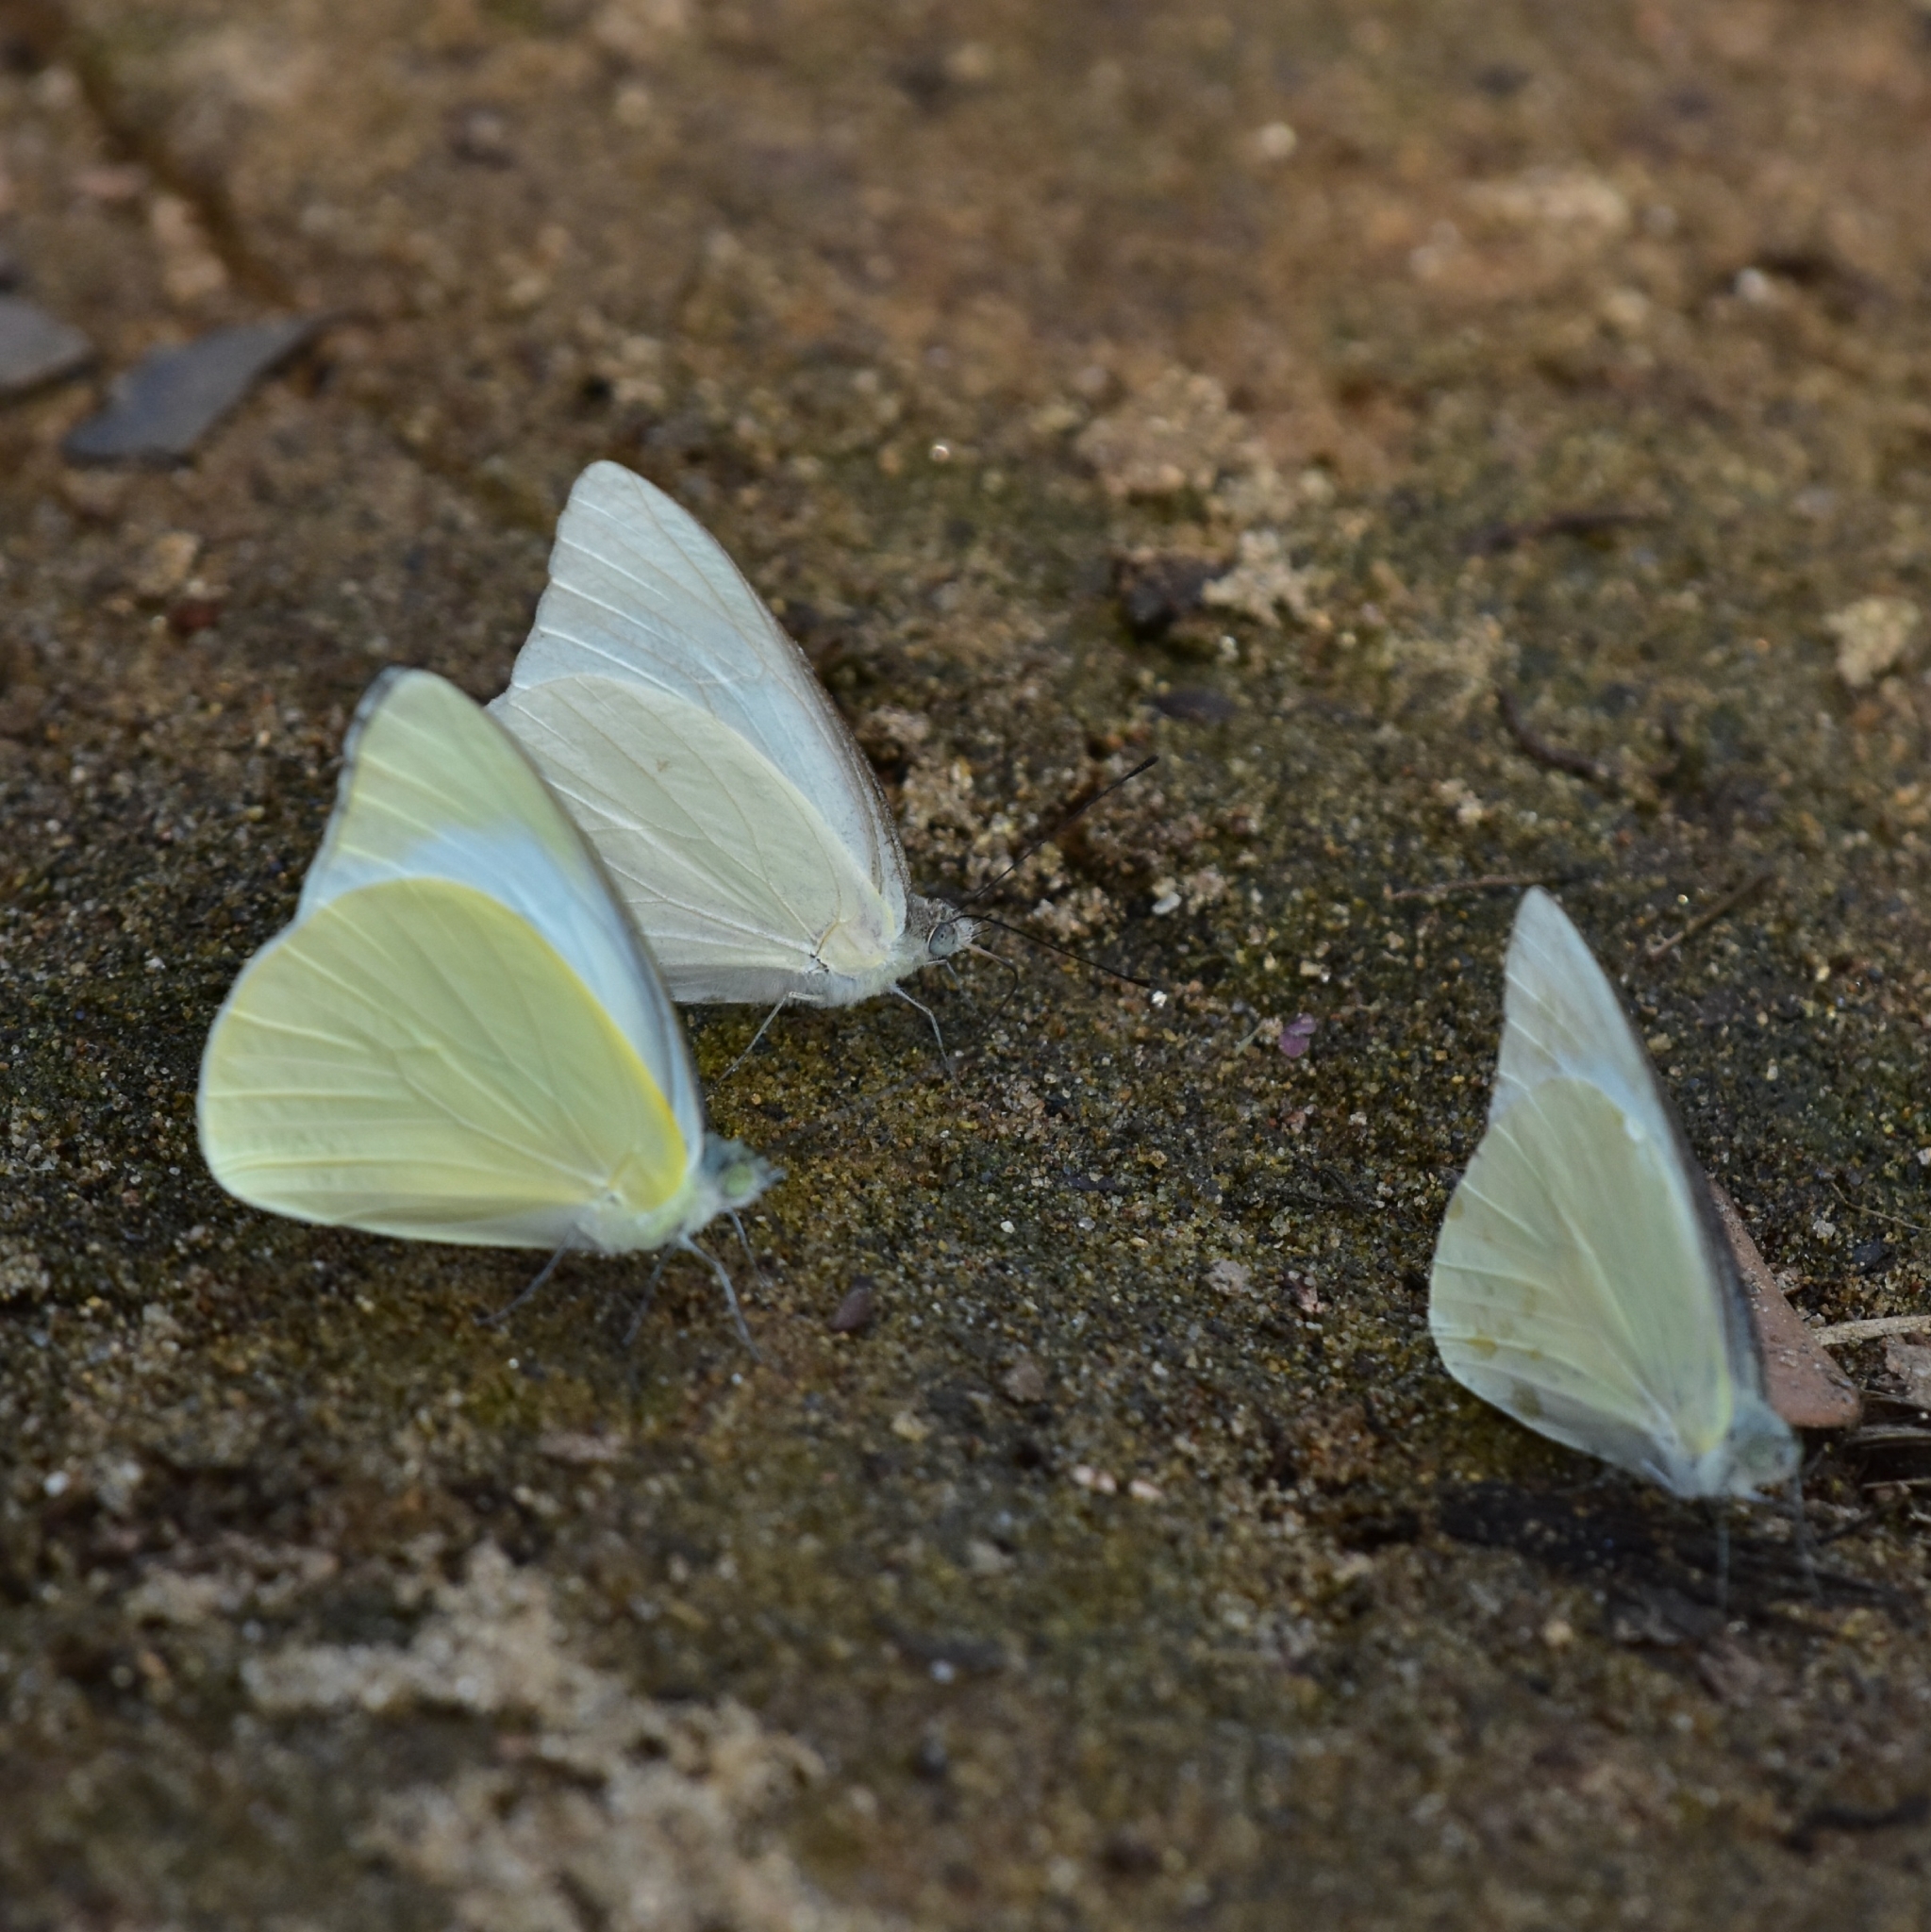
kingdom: Animalia
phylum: Arthropoda
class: Insecta
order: Lepidoptera
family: Pieridae
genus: Appias
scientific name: Appias albina
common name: Common albatross
